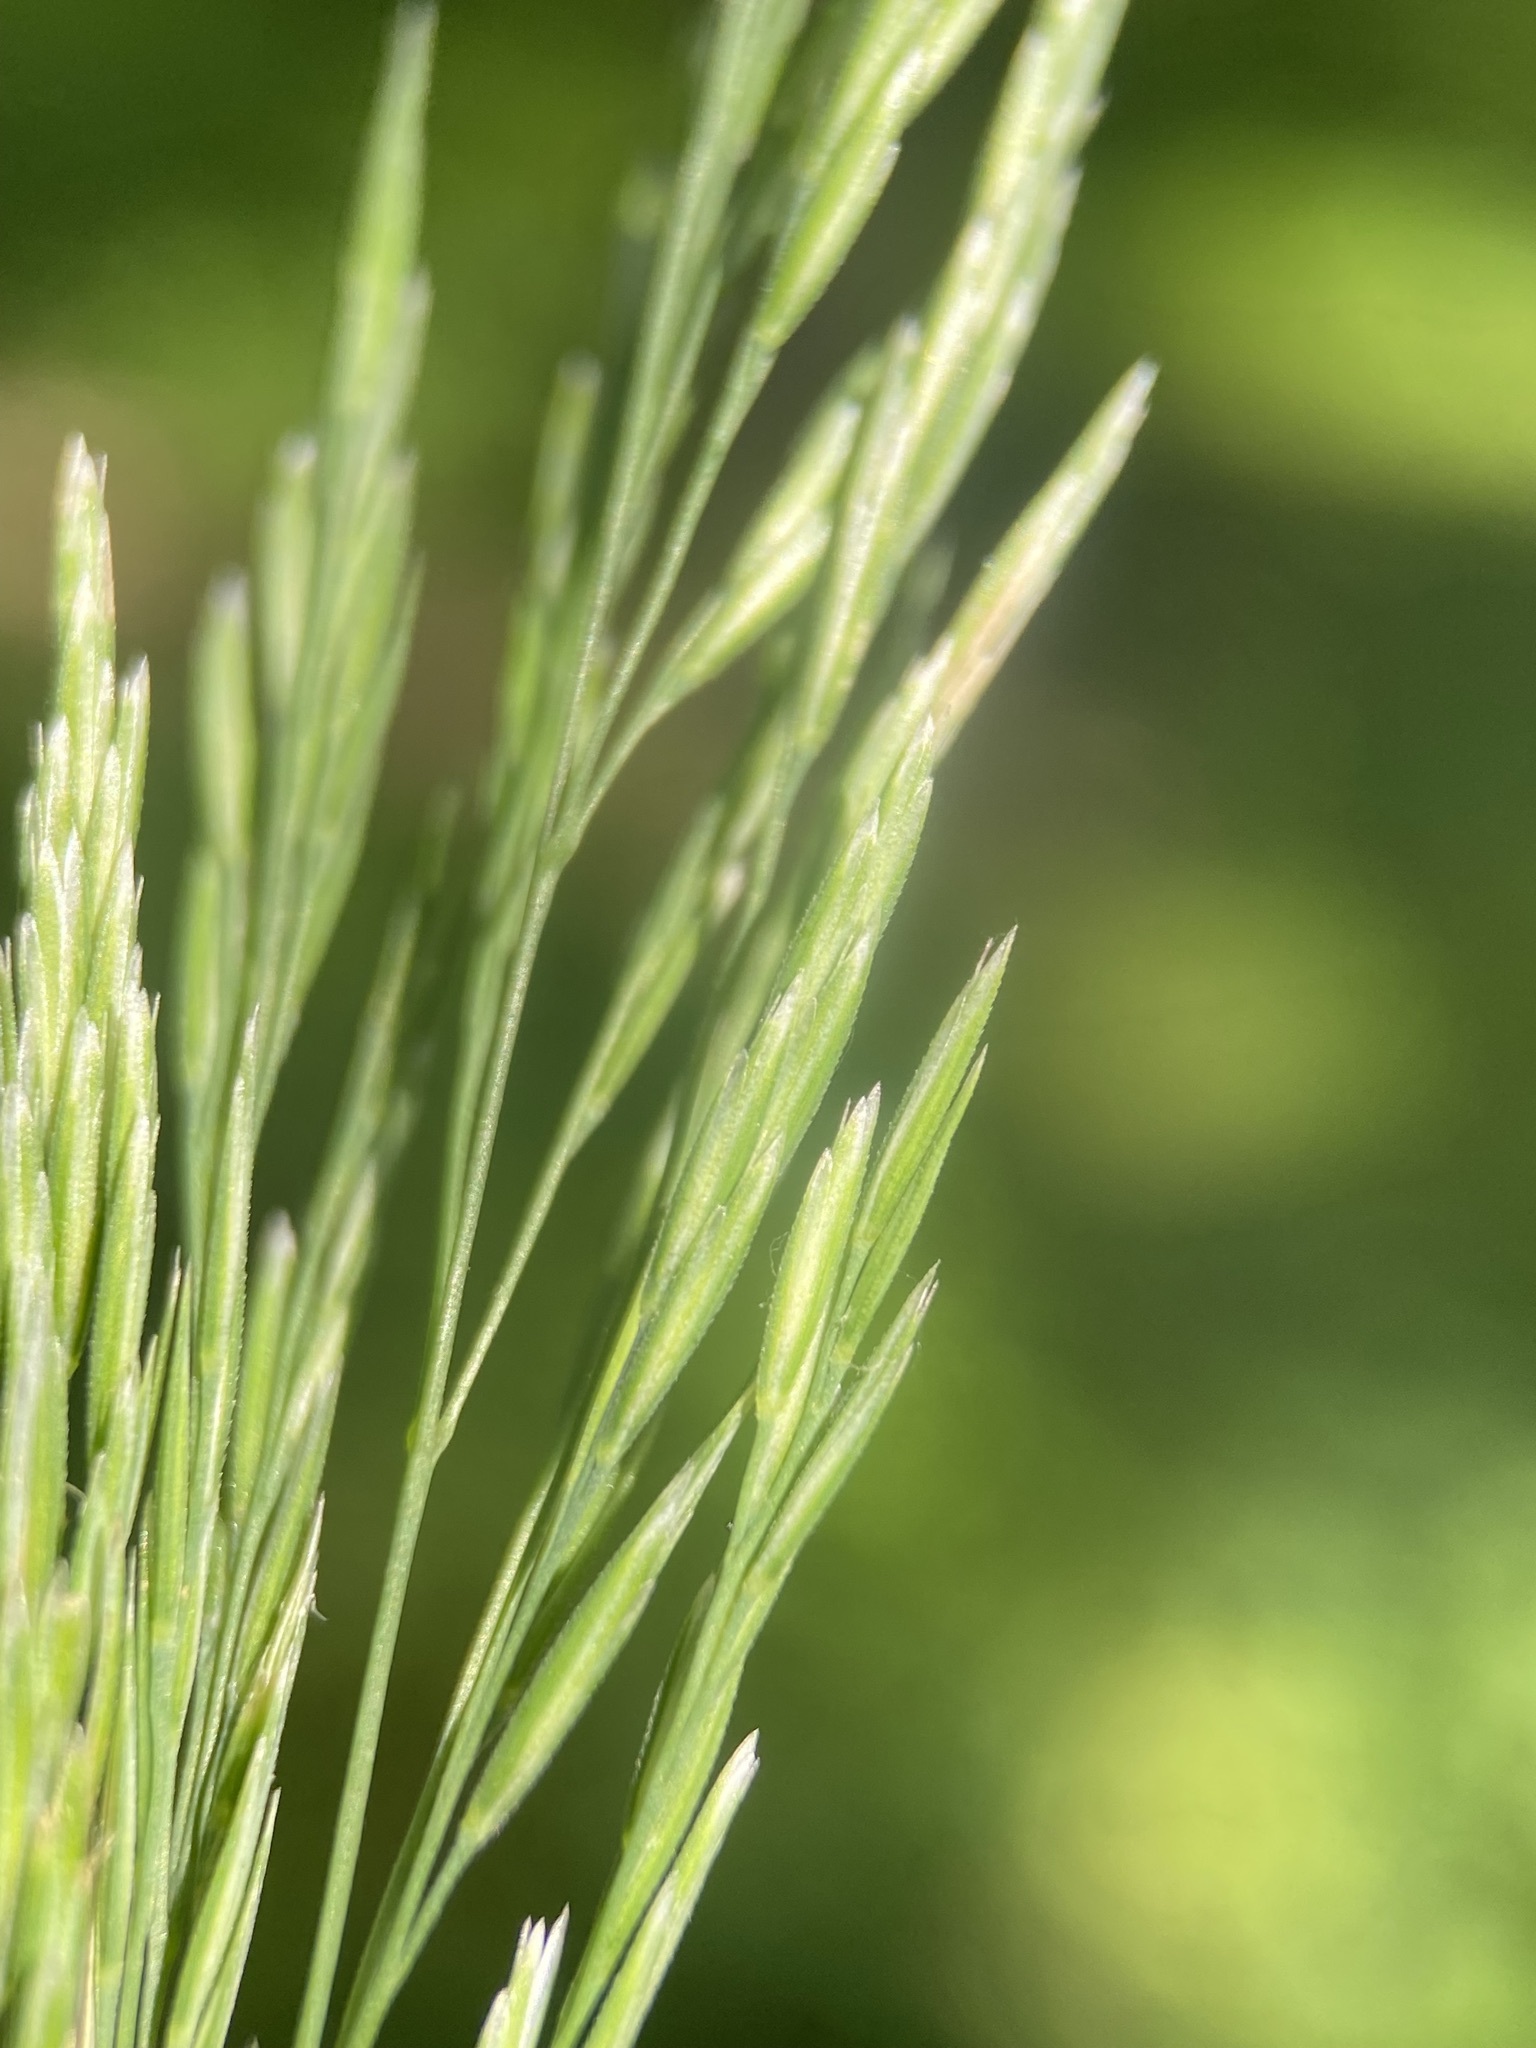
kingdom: Plantae
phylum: Tracheophyta
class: Liliopsida
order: Poales
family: Poaceae
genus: Cinna
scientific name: Cinna arundinacea
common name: Stout woodreed
